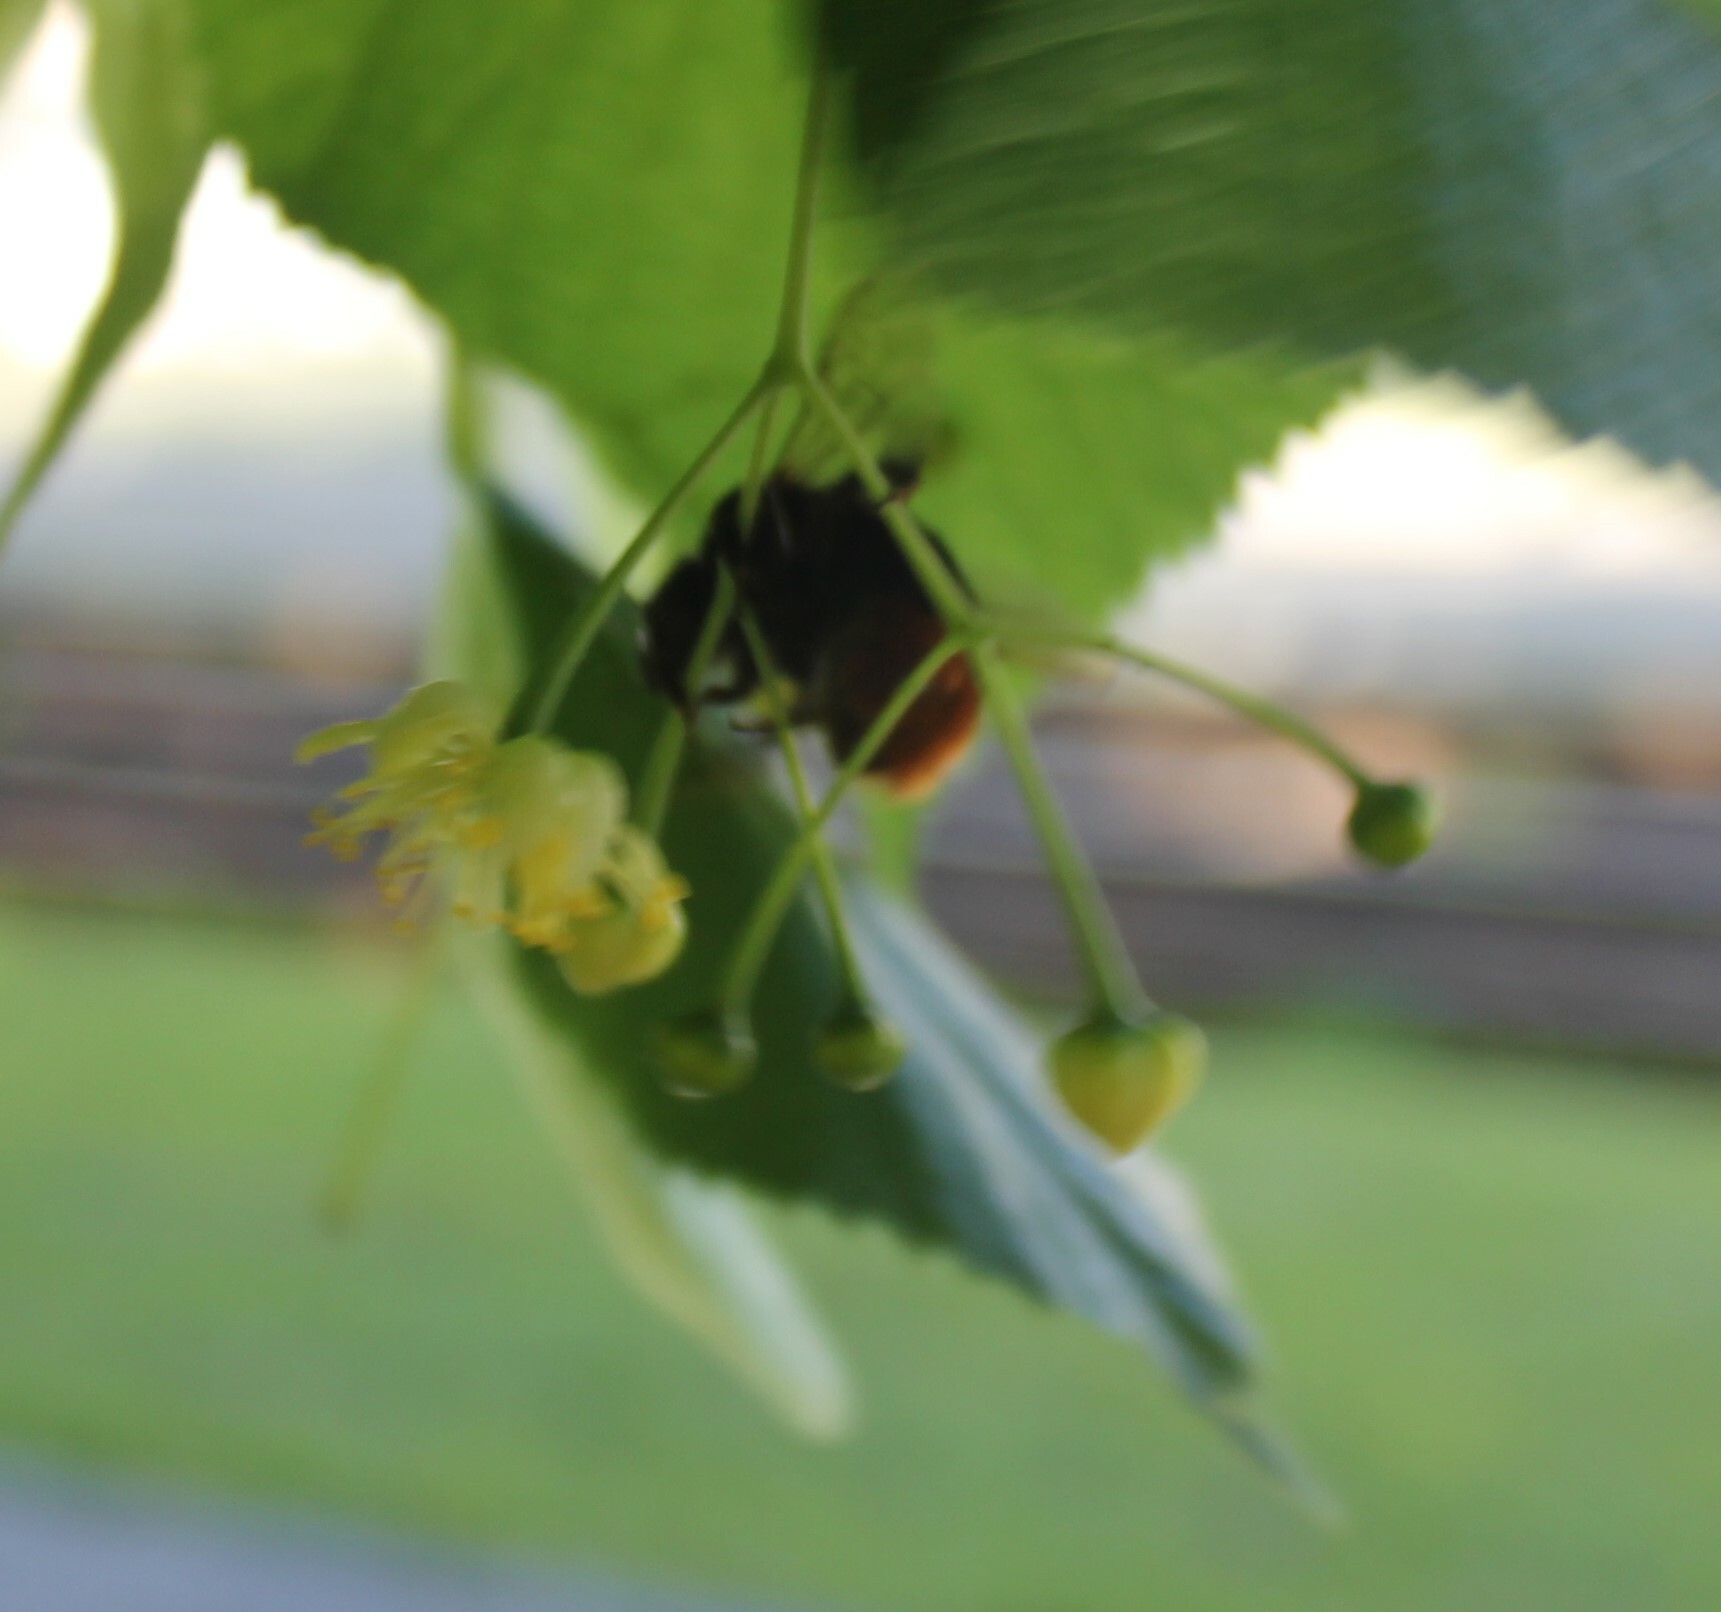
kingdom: Animalia
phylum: Arthropoda
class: Insecta
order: Hymenoptera
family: Apidae
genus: Bombus
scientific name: Bombus lapidarius
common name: Large red-tailed humble-bee
